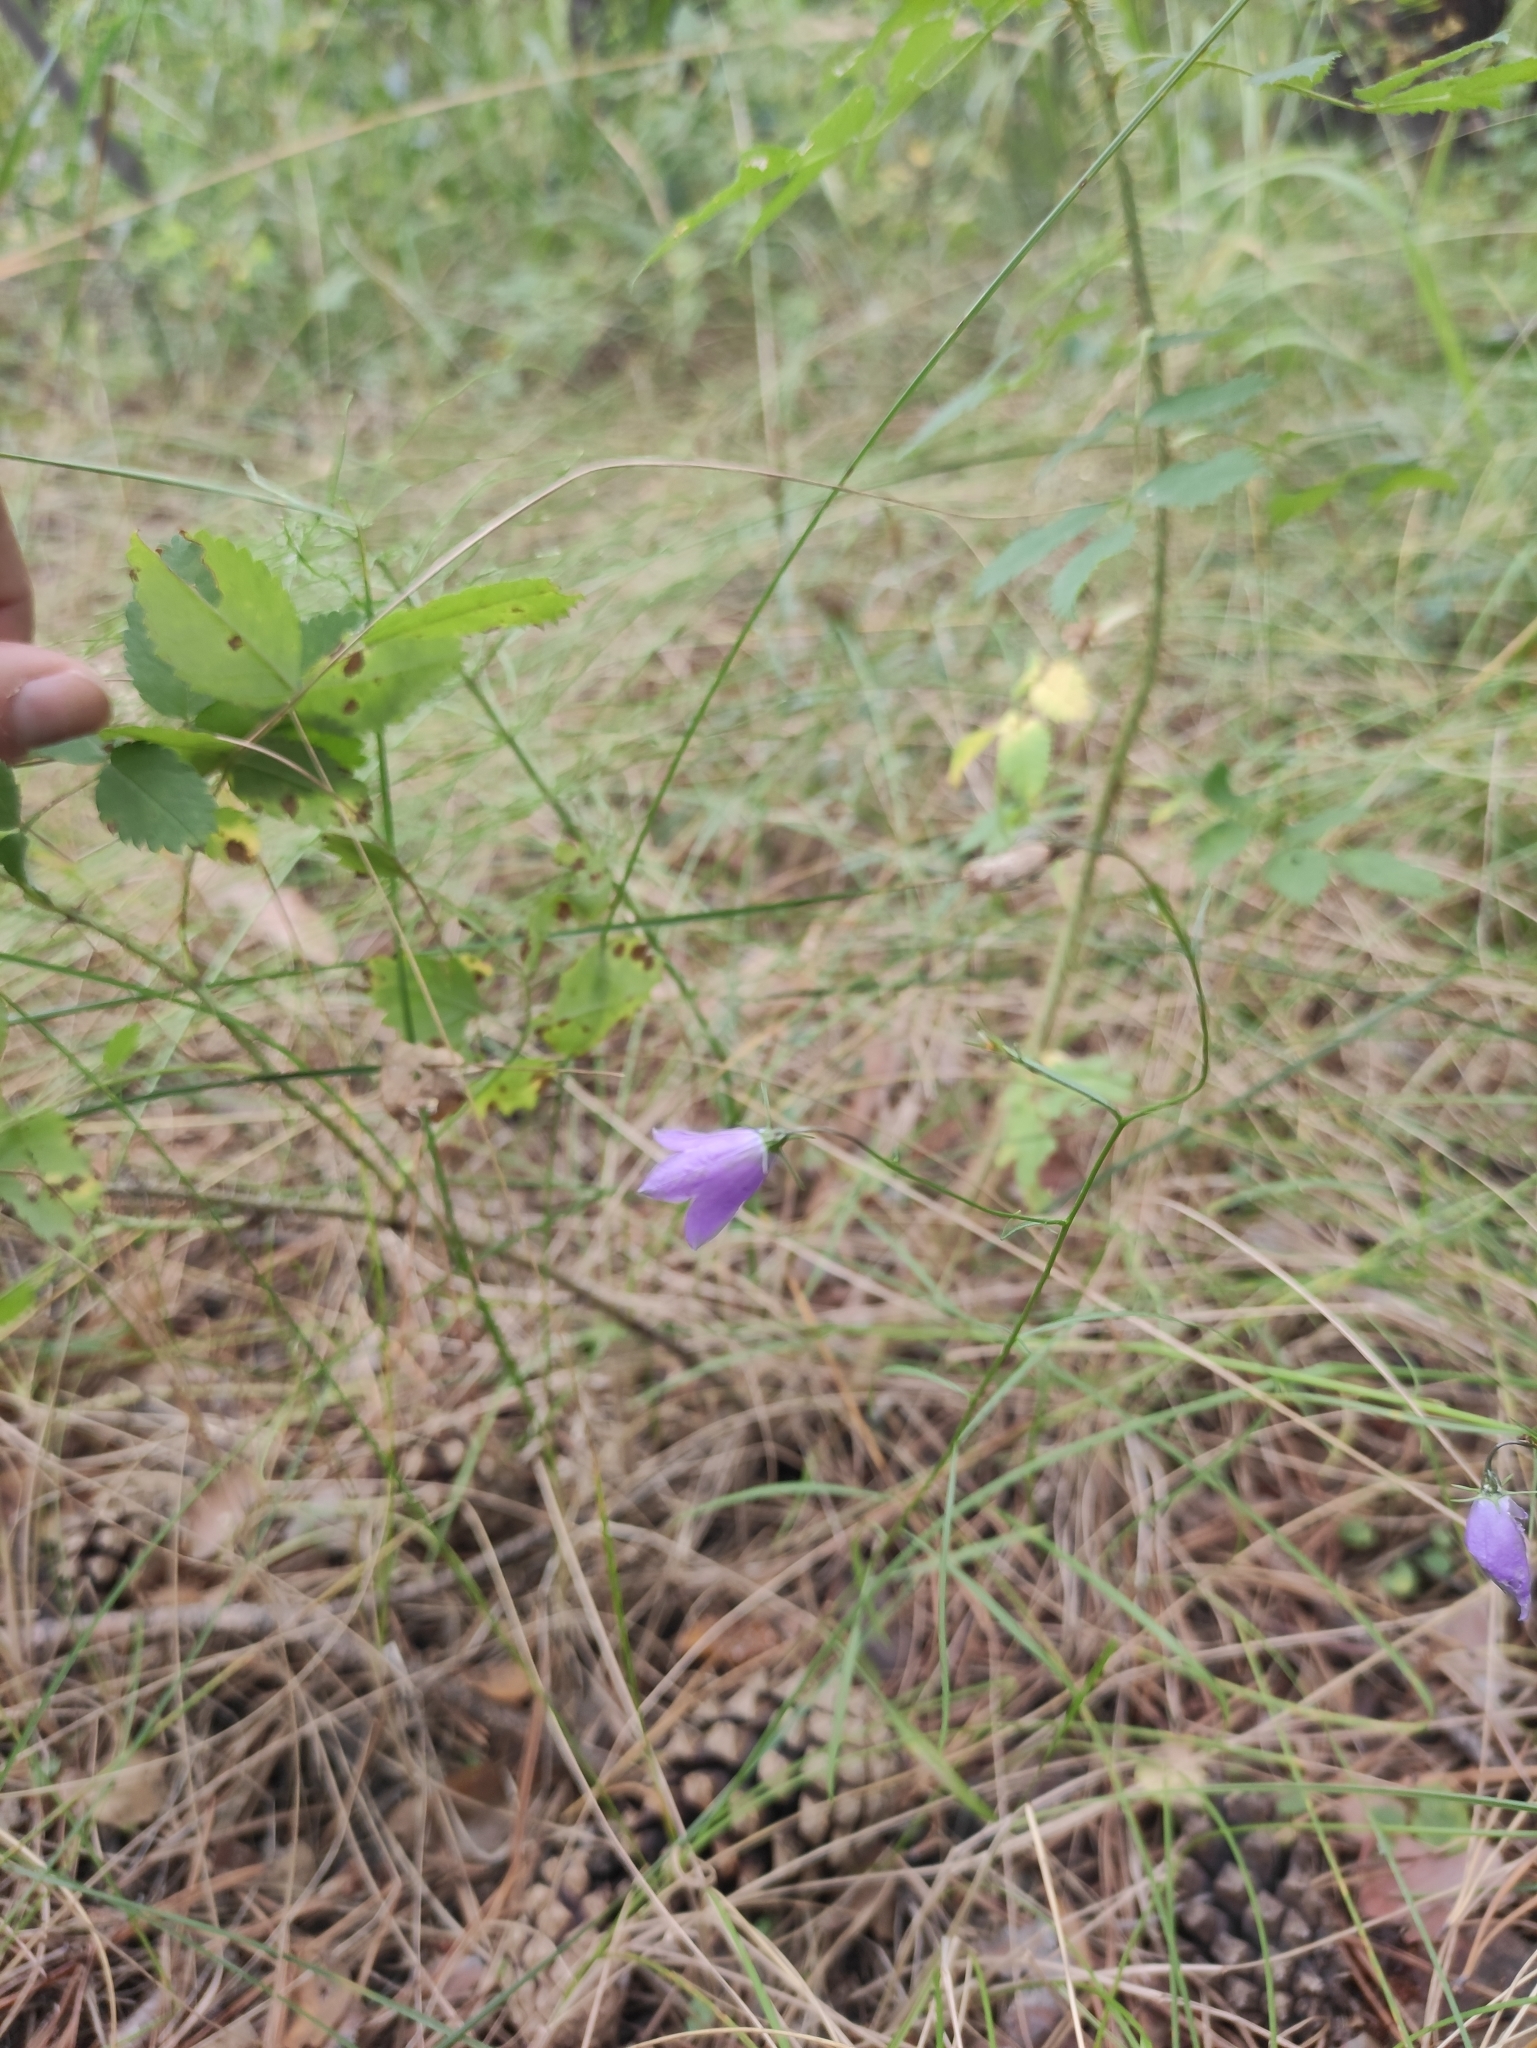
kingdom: Plantae
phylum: Tracheophyta
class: Magnoliopsida
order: Asterales
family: Campanulaceae
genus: Campanula
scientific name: Campanula rotundifolia
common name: Harebell
